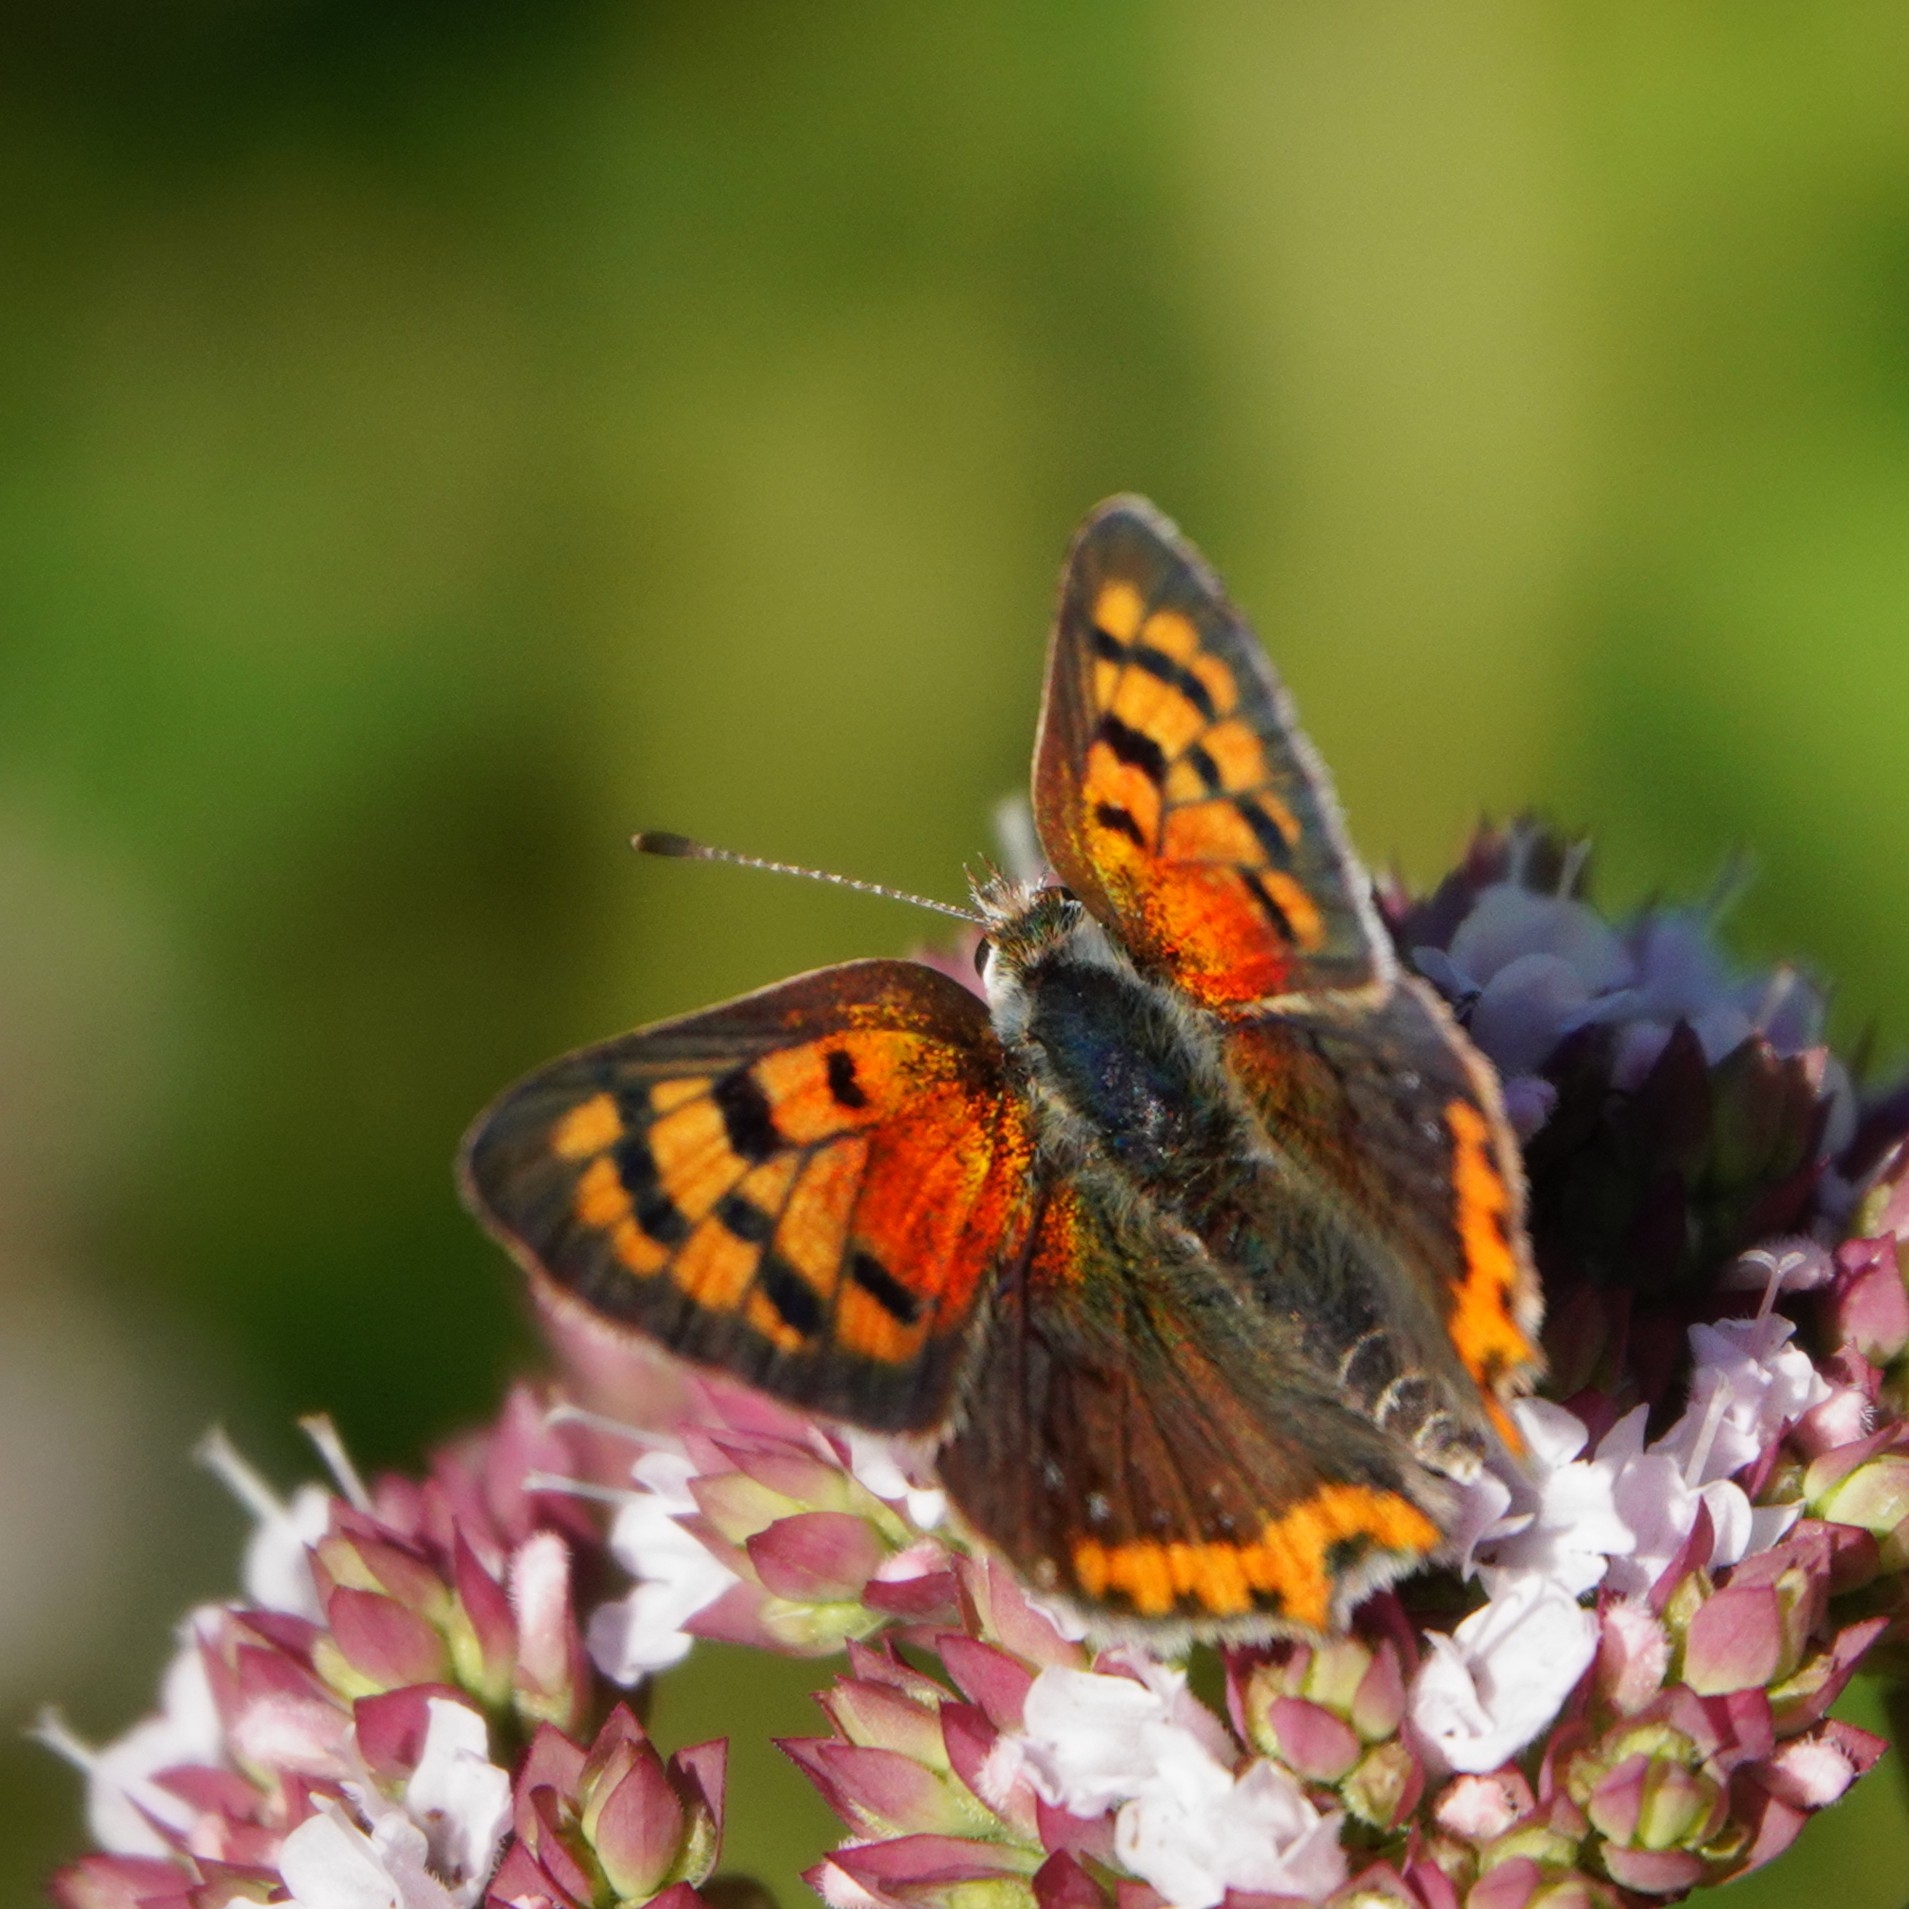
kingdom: Animalia
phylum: Arthropoda
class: Insecta
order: Lepidoptera
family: Lycaenidae
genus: Lycaena
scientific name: Lycaena phlaeas
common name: Small copper
